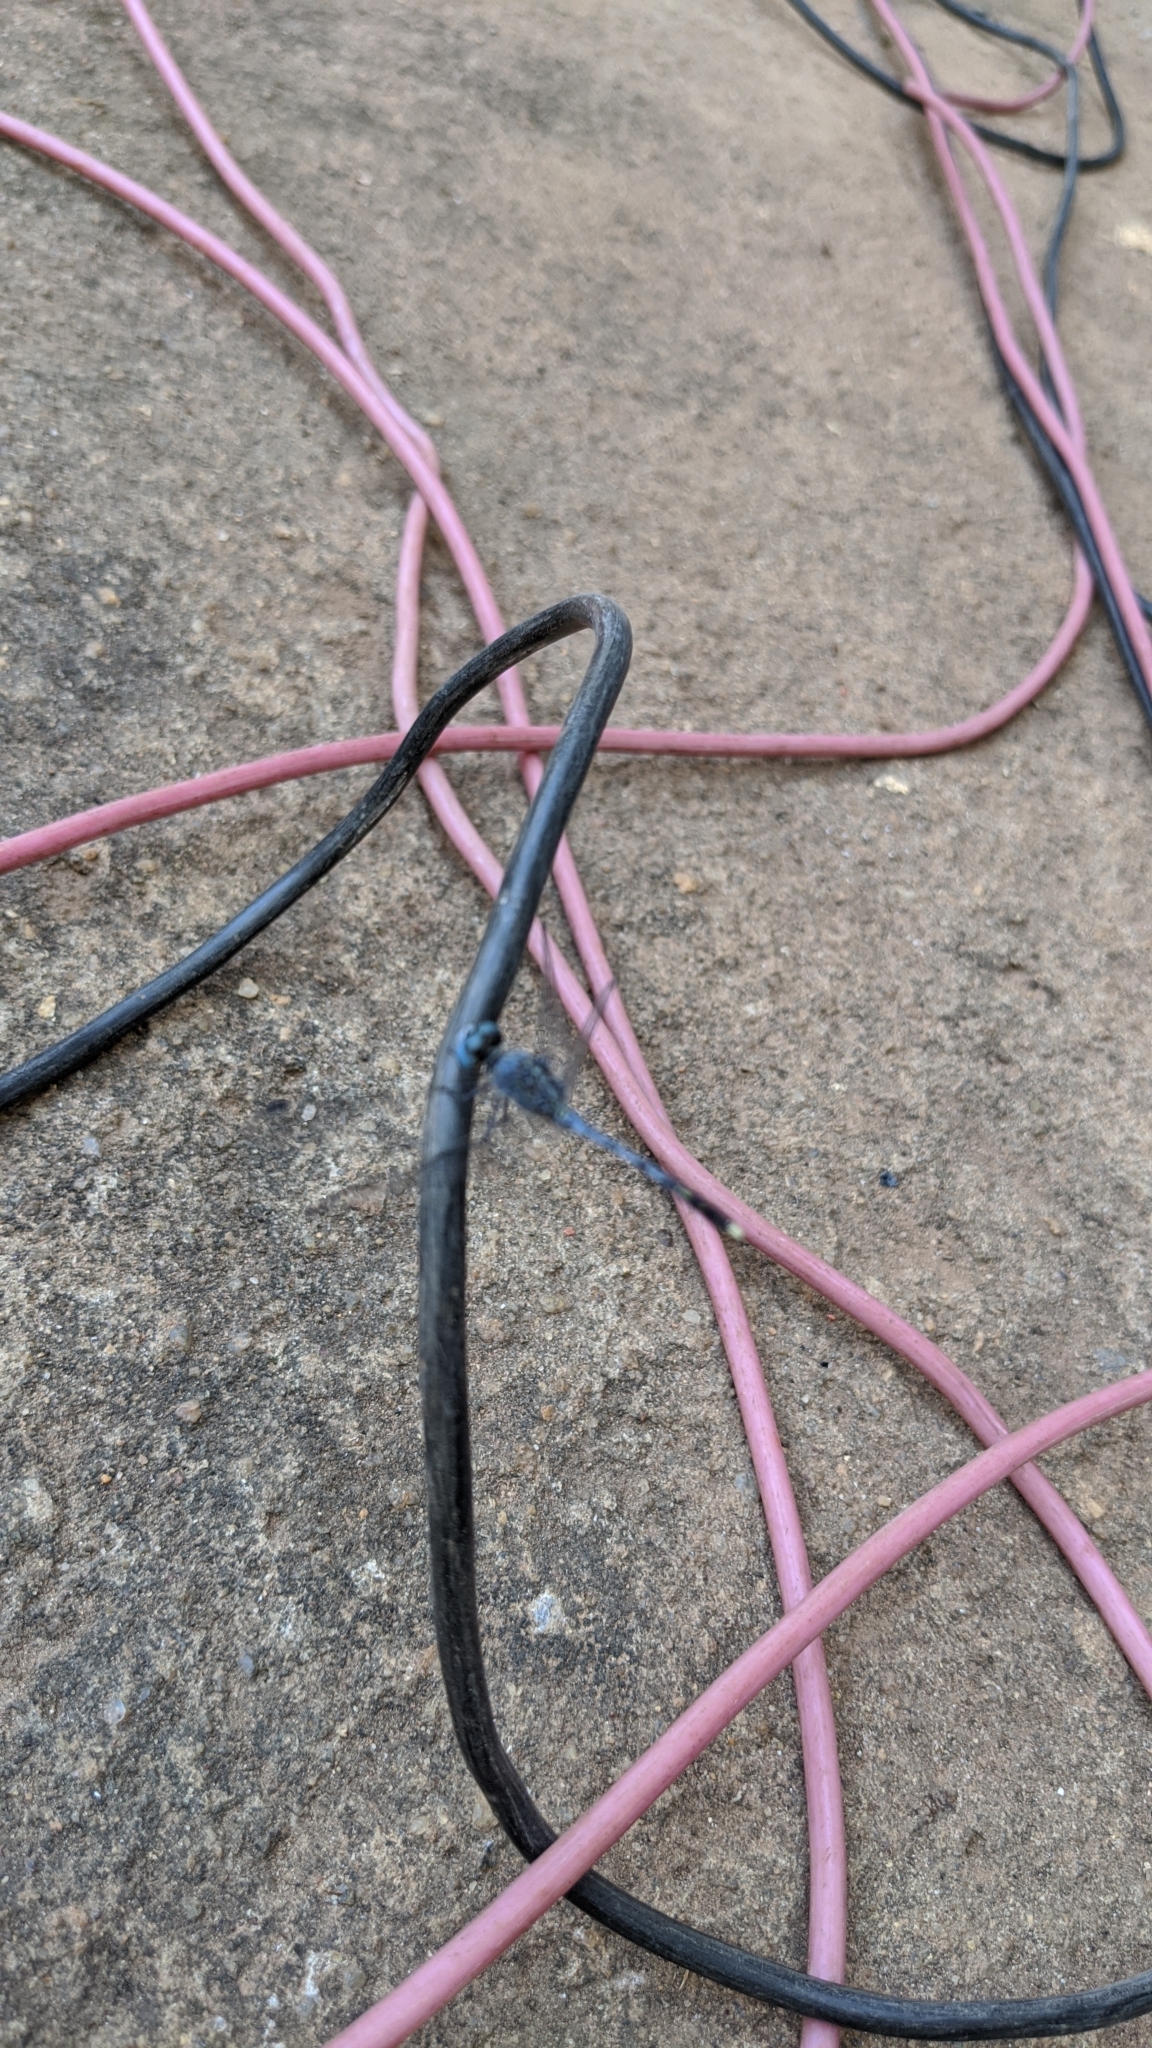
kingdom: Animalia
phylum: Arthropoda
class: Insecta
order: Odonata
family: Libellulidae
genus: Diplacodes
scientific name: Diplacodes trivialis
